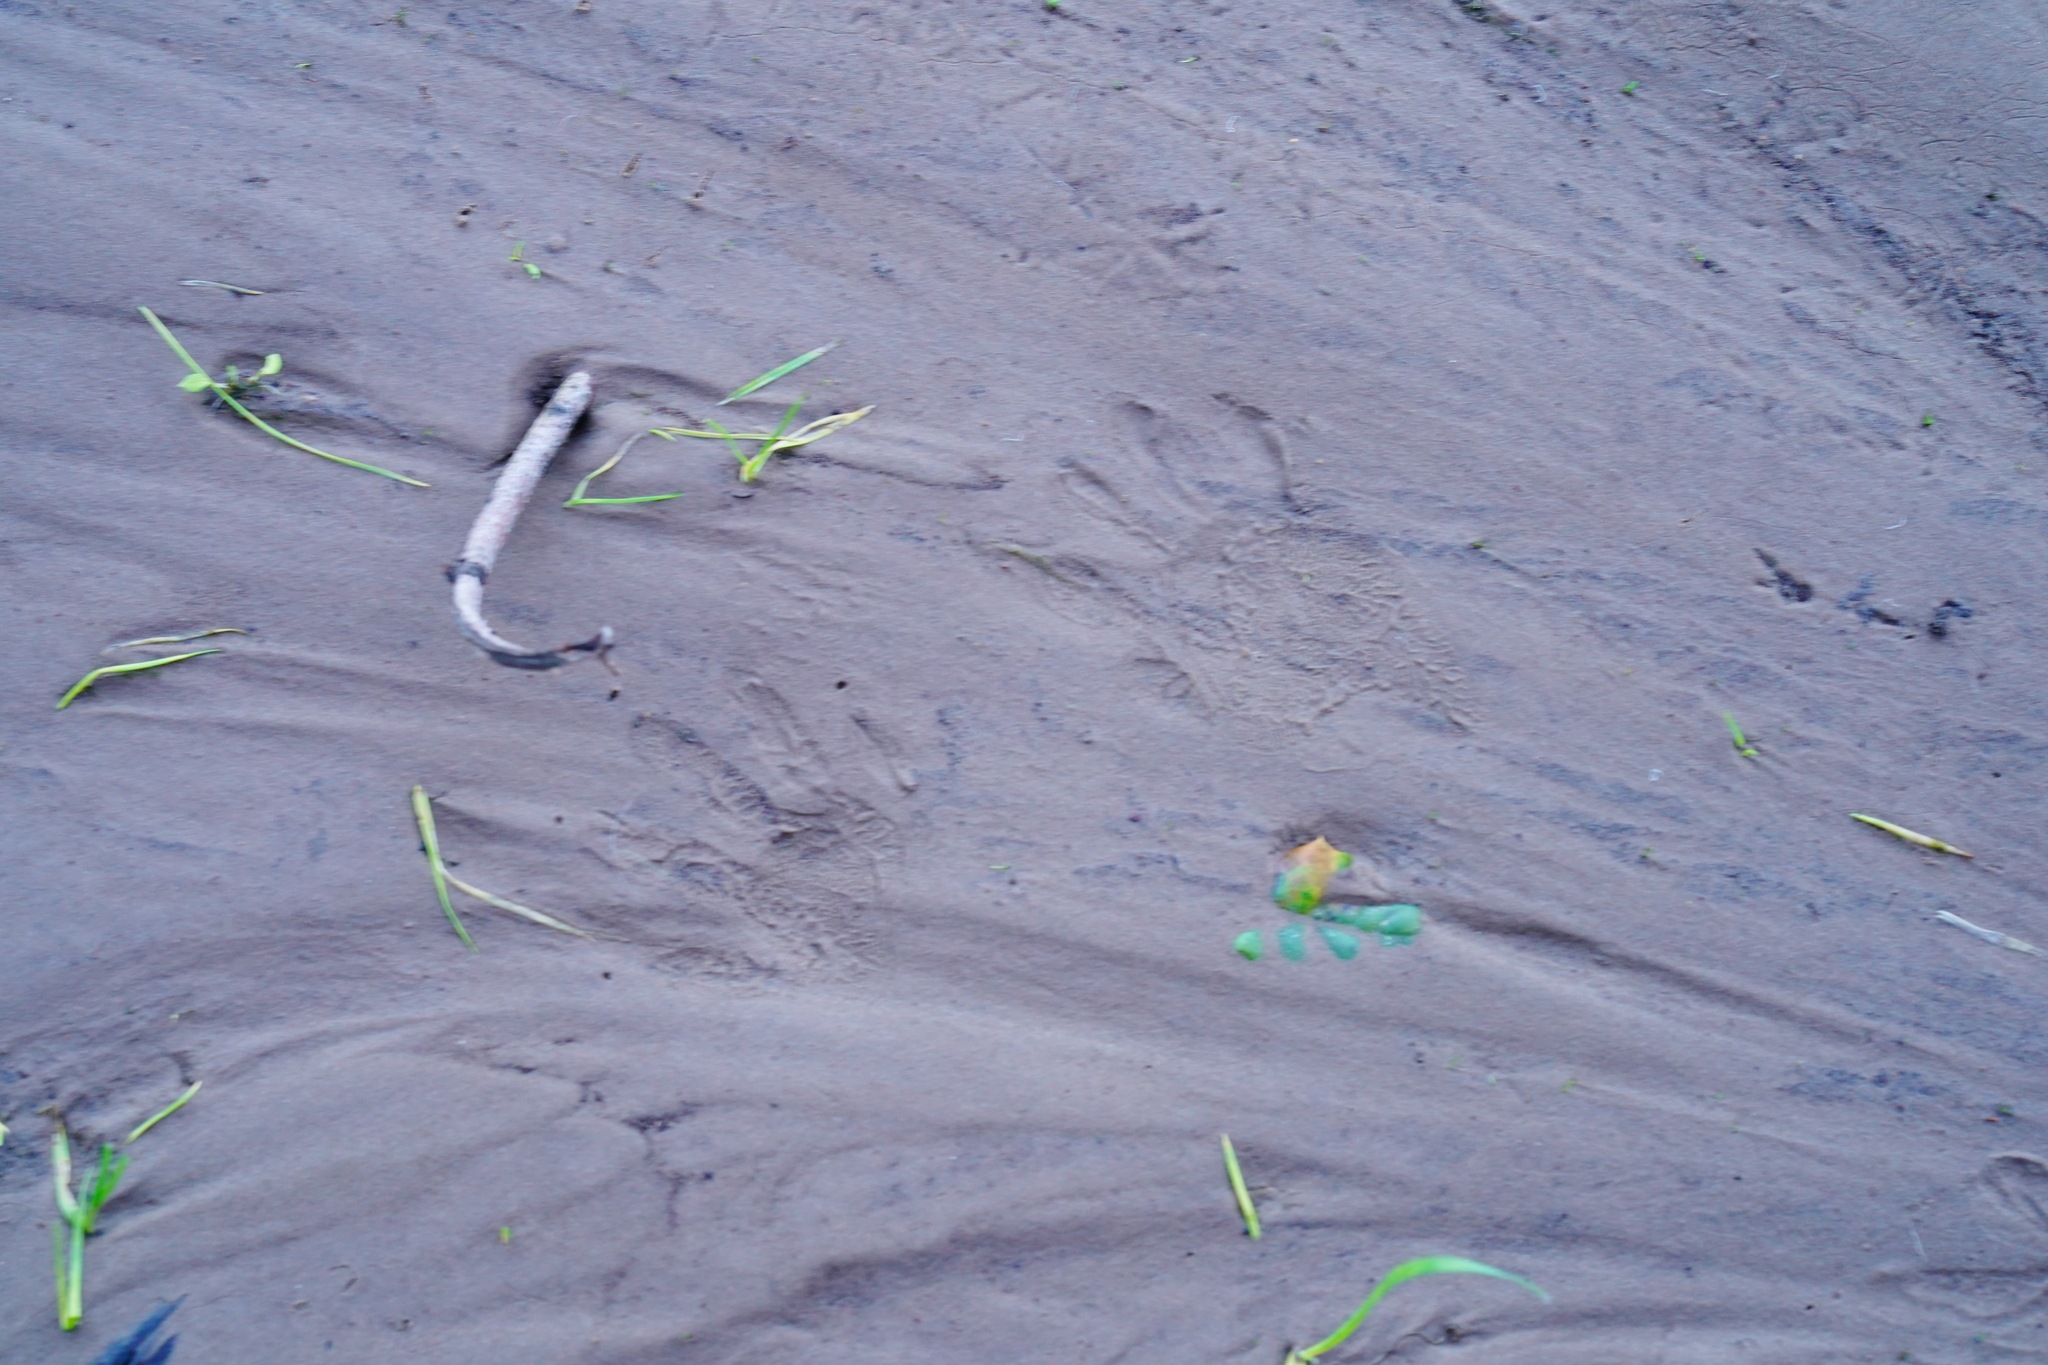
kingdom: Animalia
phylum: Chordata
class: Mammalia
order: Carnivora
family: Procyonidae
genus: Procyon
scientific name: Procyon lotor
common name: Raccoon
